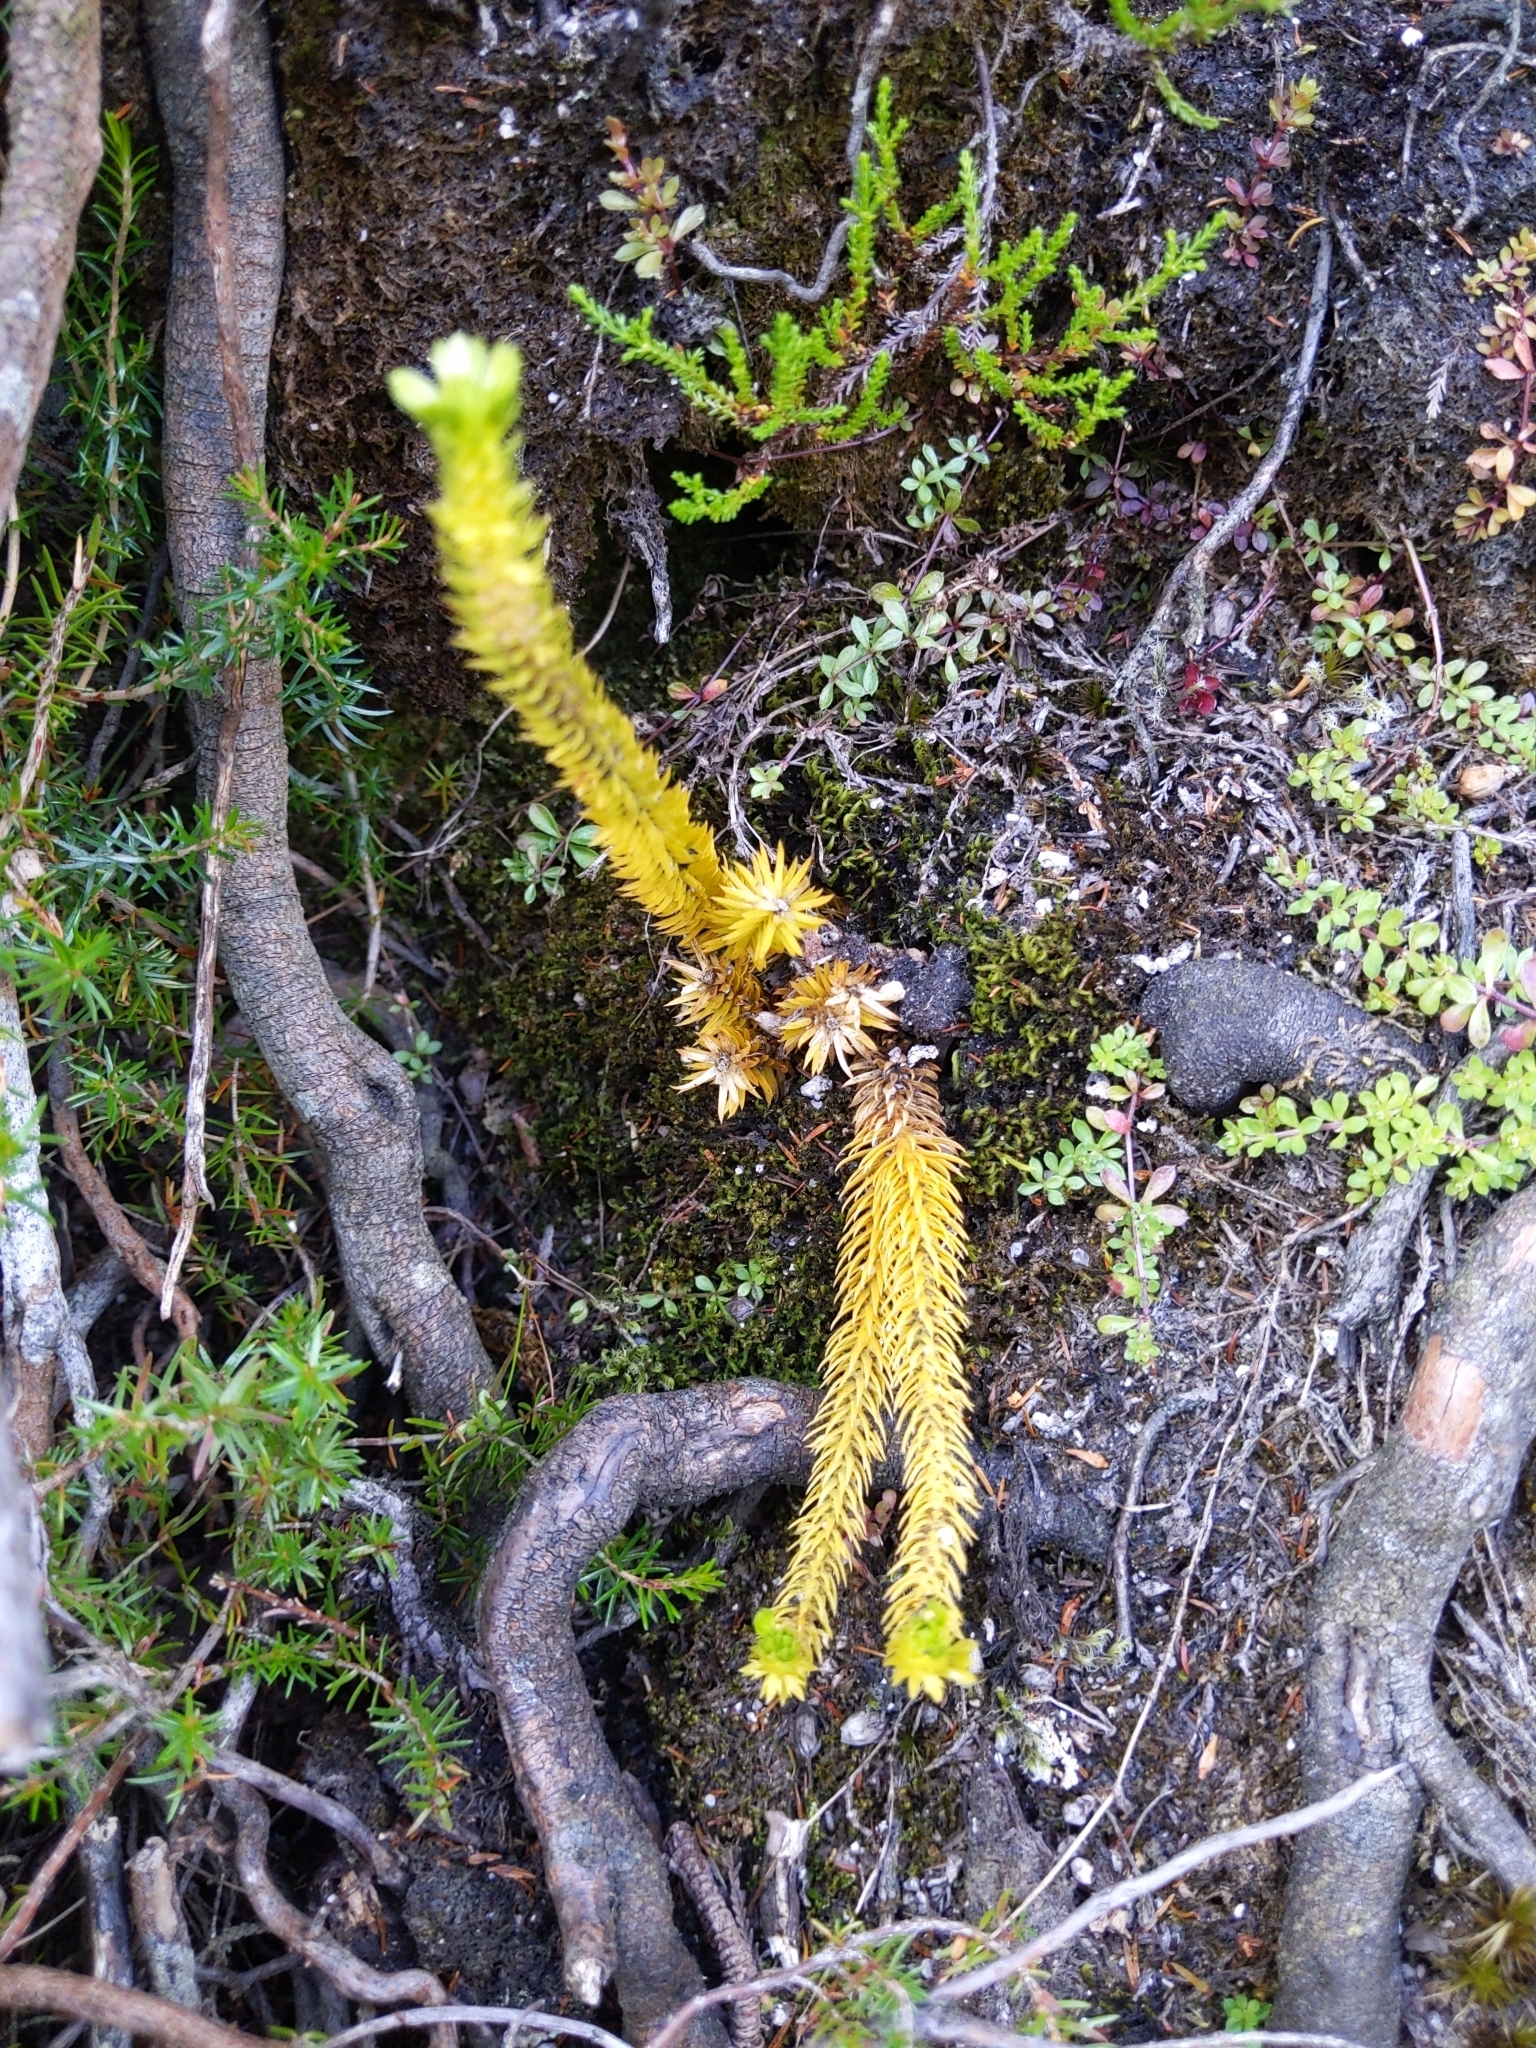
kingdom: Plantae
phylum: Tracheophyta
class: Lycopodiopsida
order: Lycopodiales
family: Lycopodiaceae
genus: Huperzia
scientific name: Huperzia selago
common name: Northern firmoss
